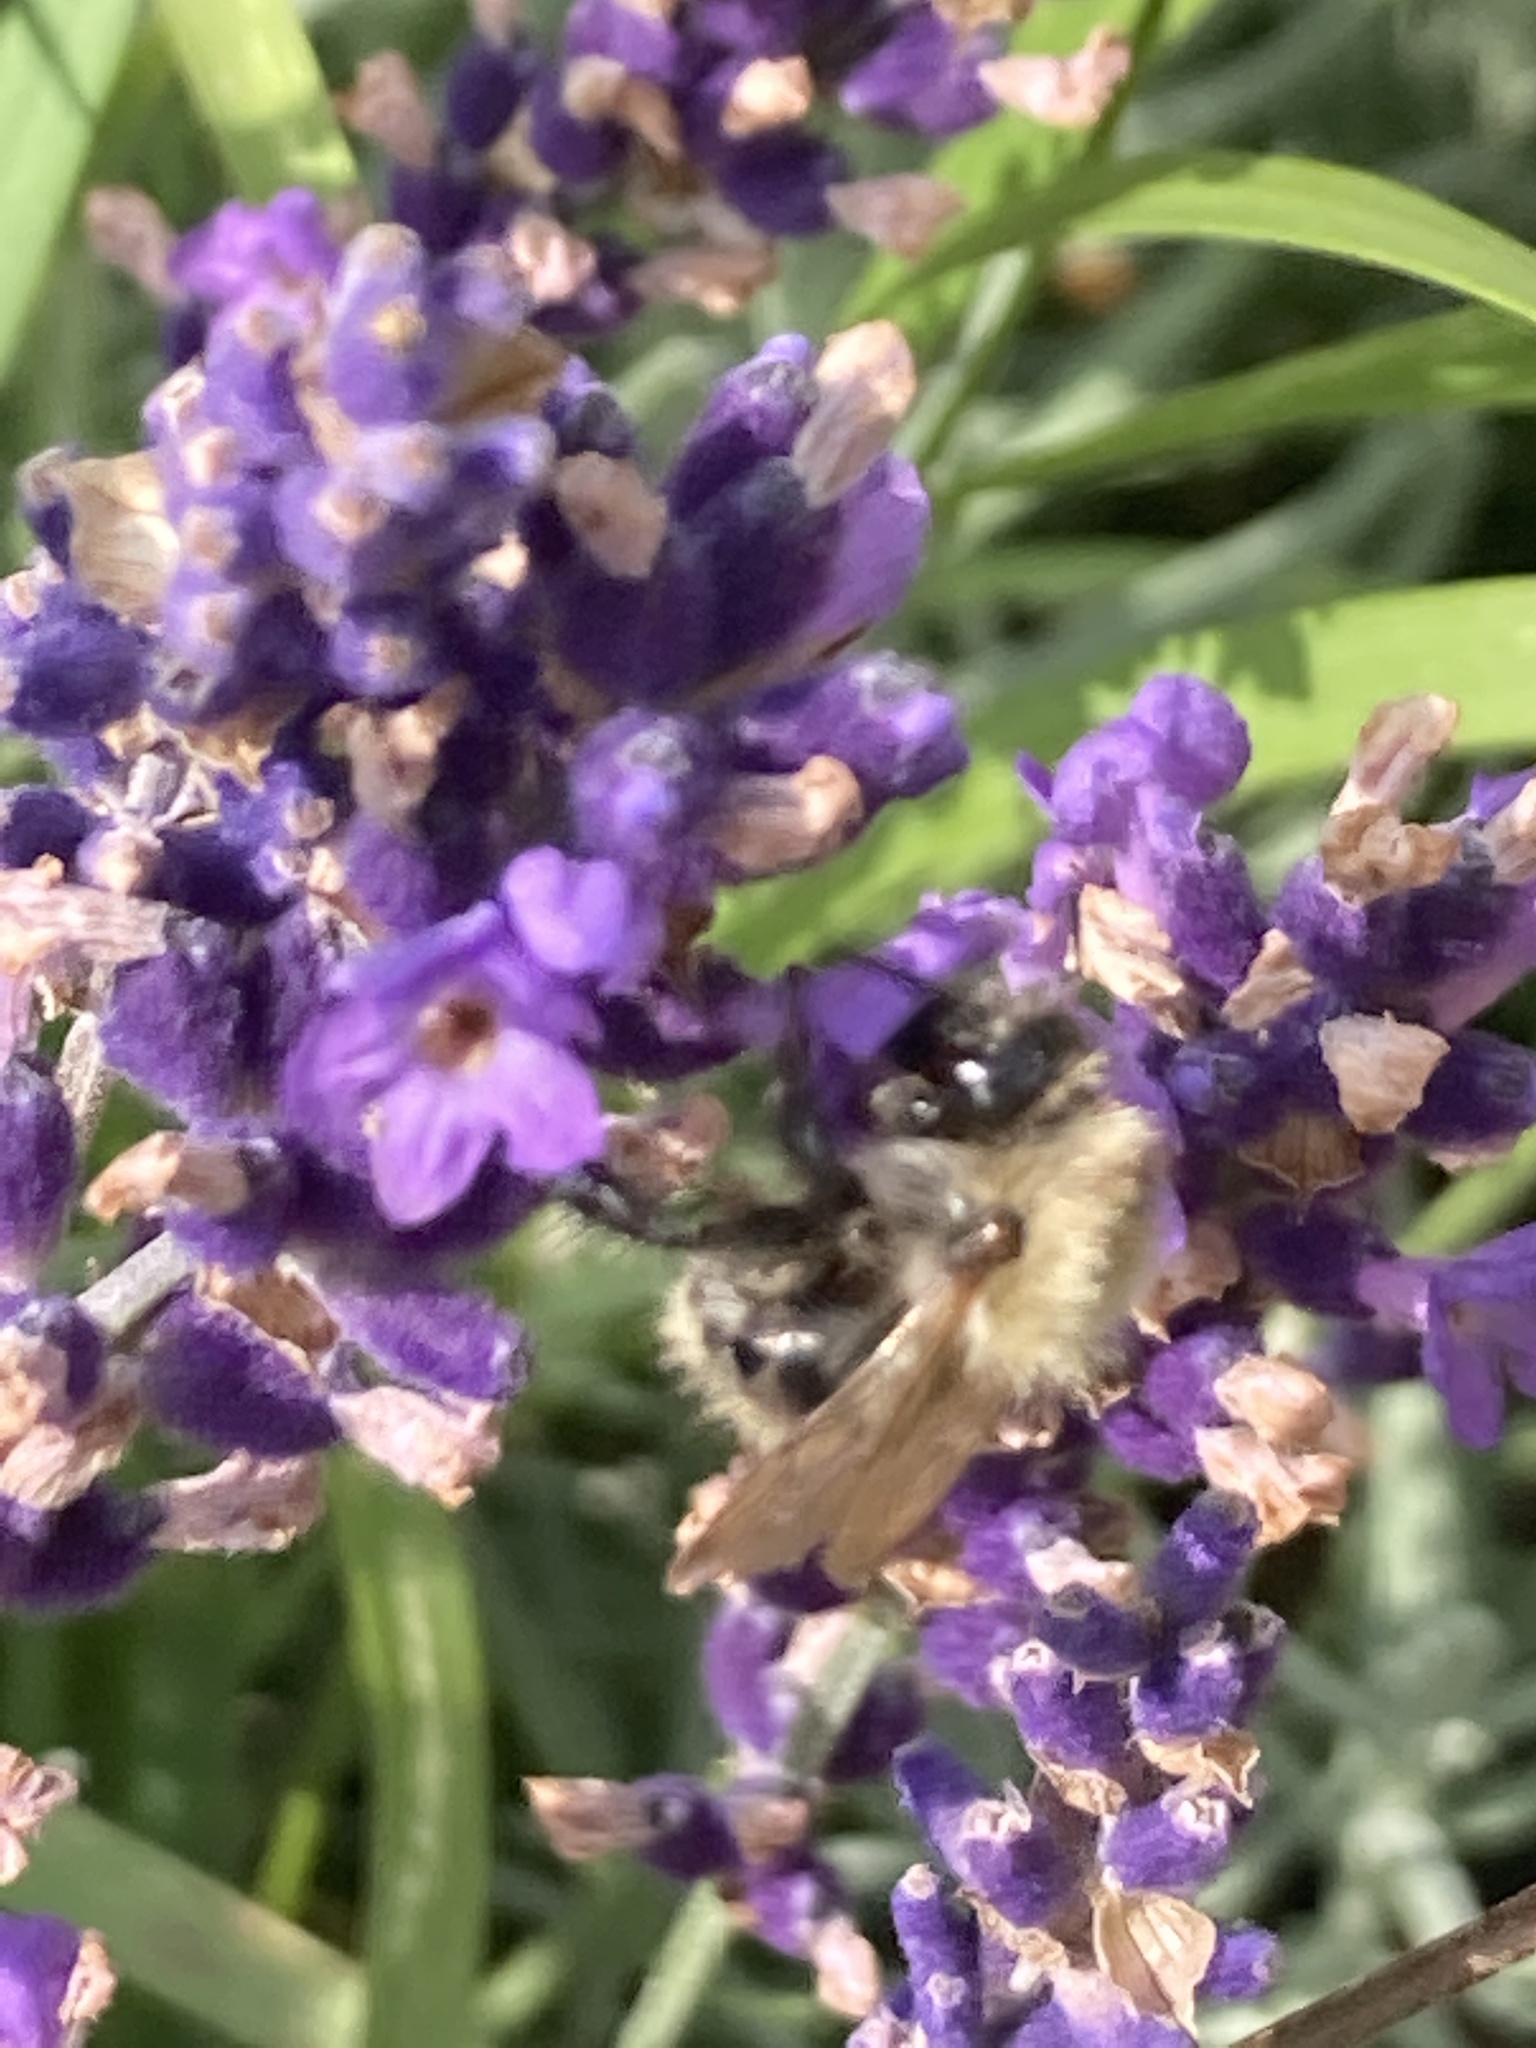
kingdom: Animalia
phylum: Arthropoda
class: Insecta
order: Hymenoptera
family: Apidae
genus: Bombus
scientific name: Bombus pascuorum
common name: Common carder bee
